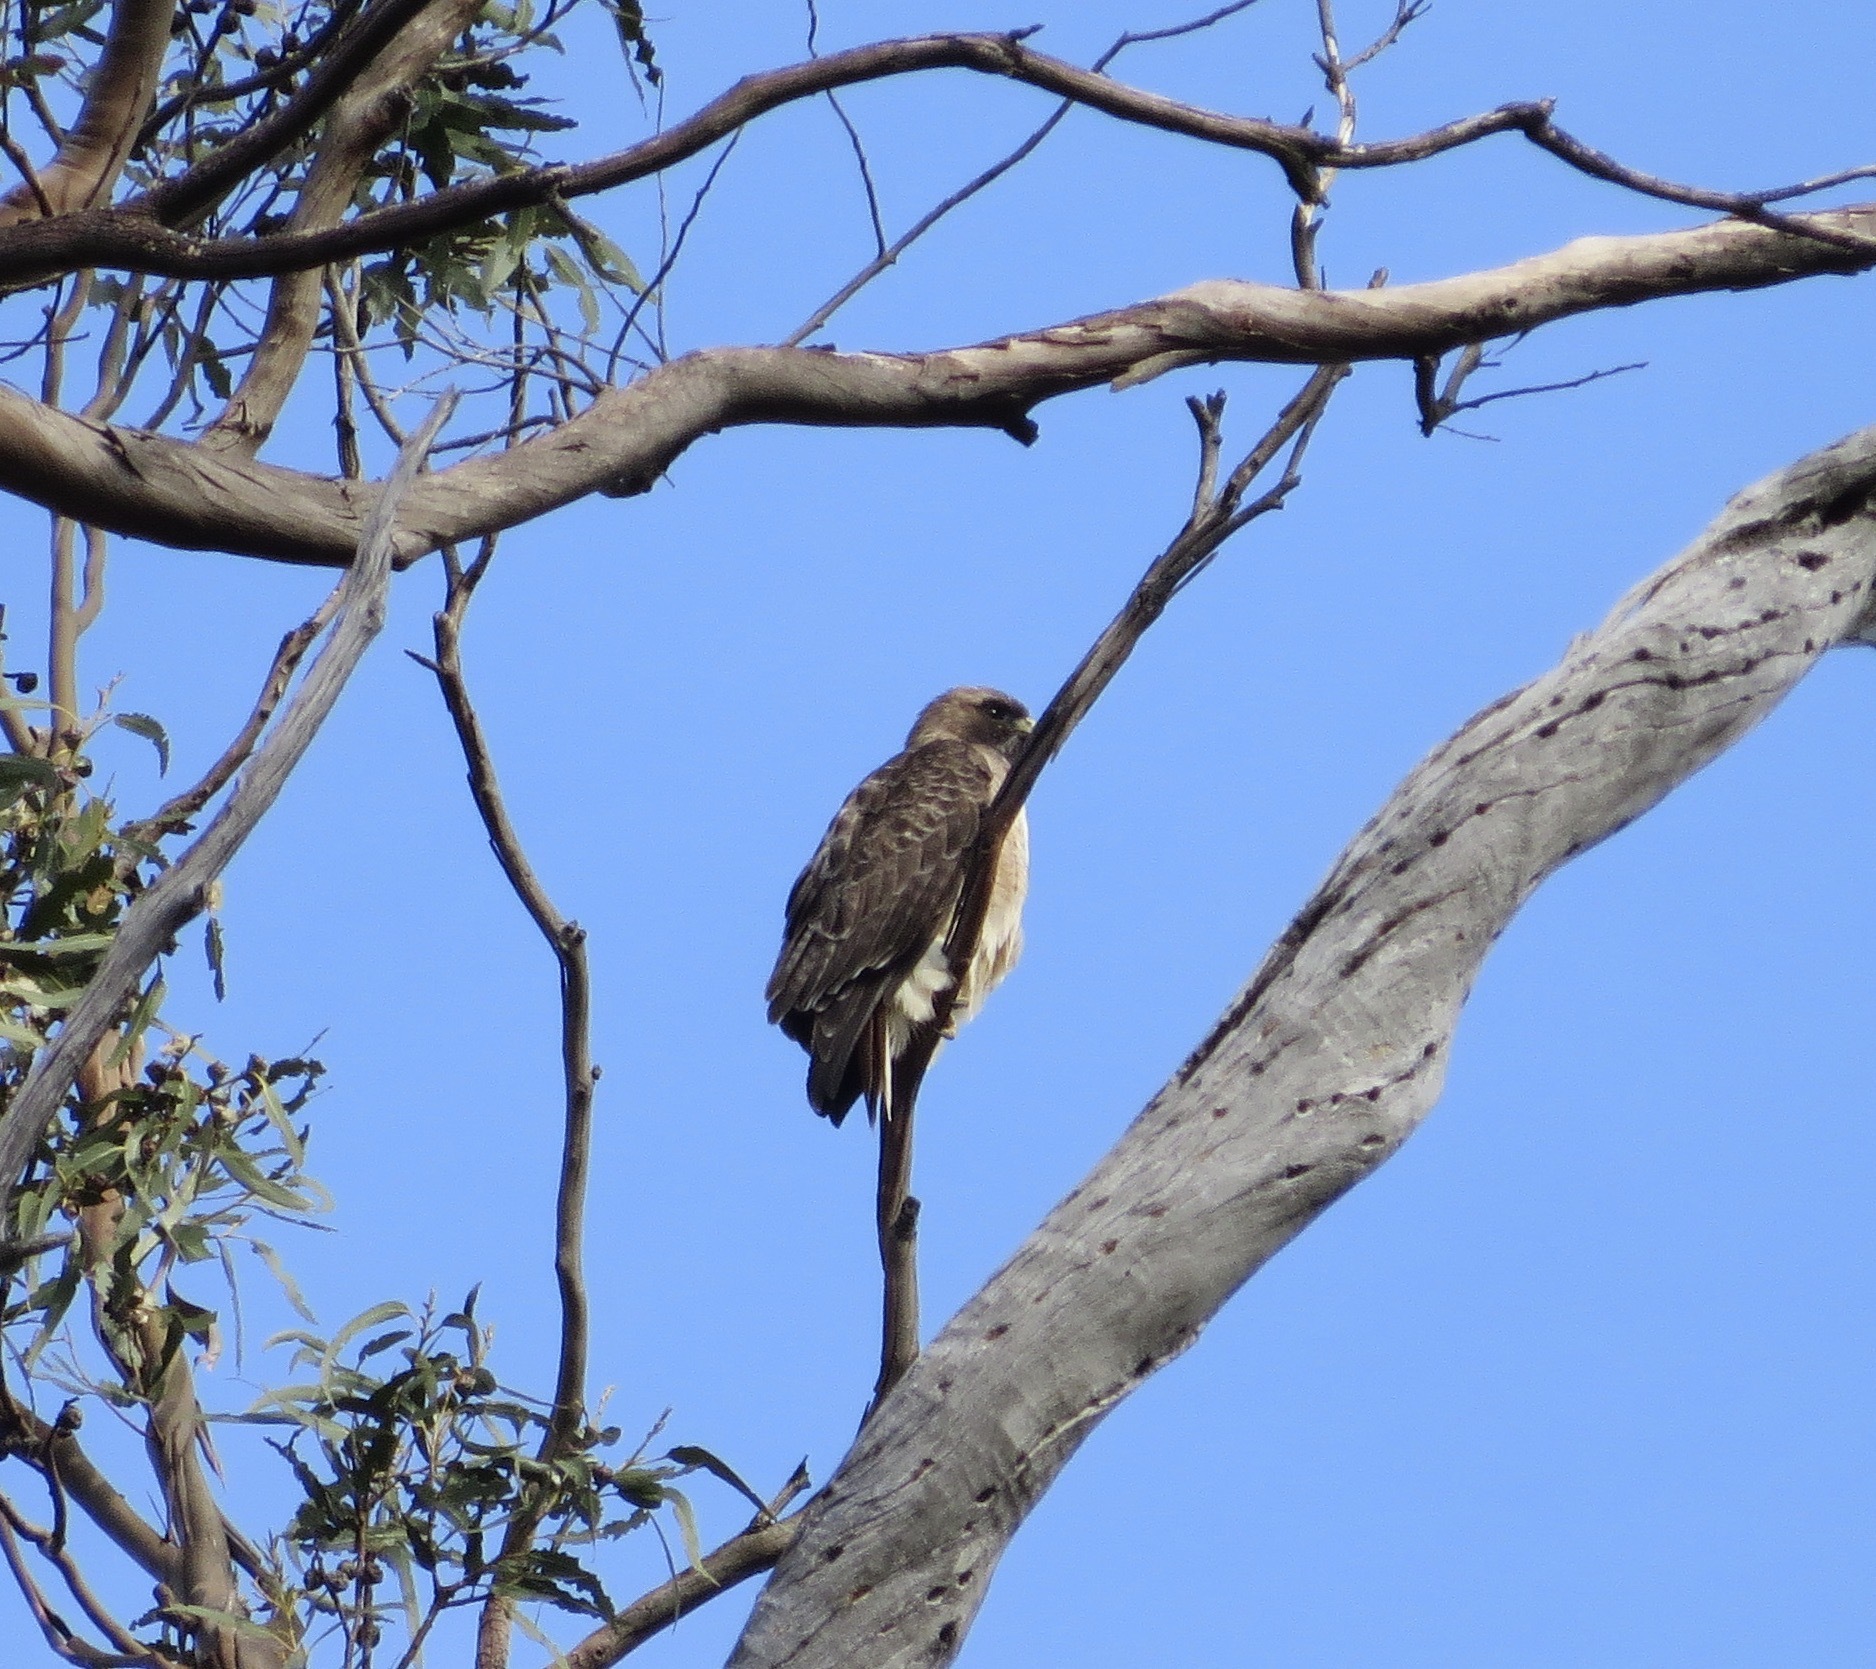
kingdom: Animalia
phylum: Chordata
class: Aves
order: Accipitriformes
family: Accipitridae
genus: Buteo
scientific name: Buteo jamaicensis
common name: Red-tailed hawk
